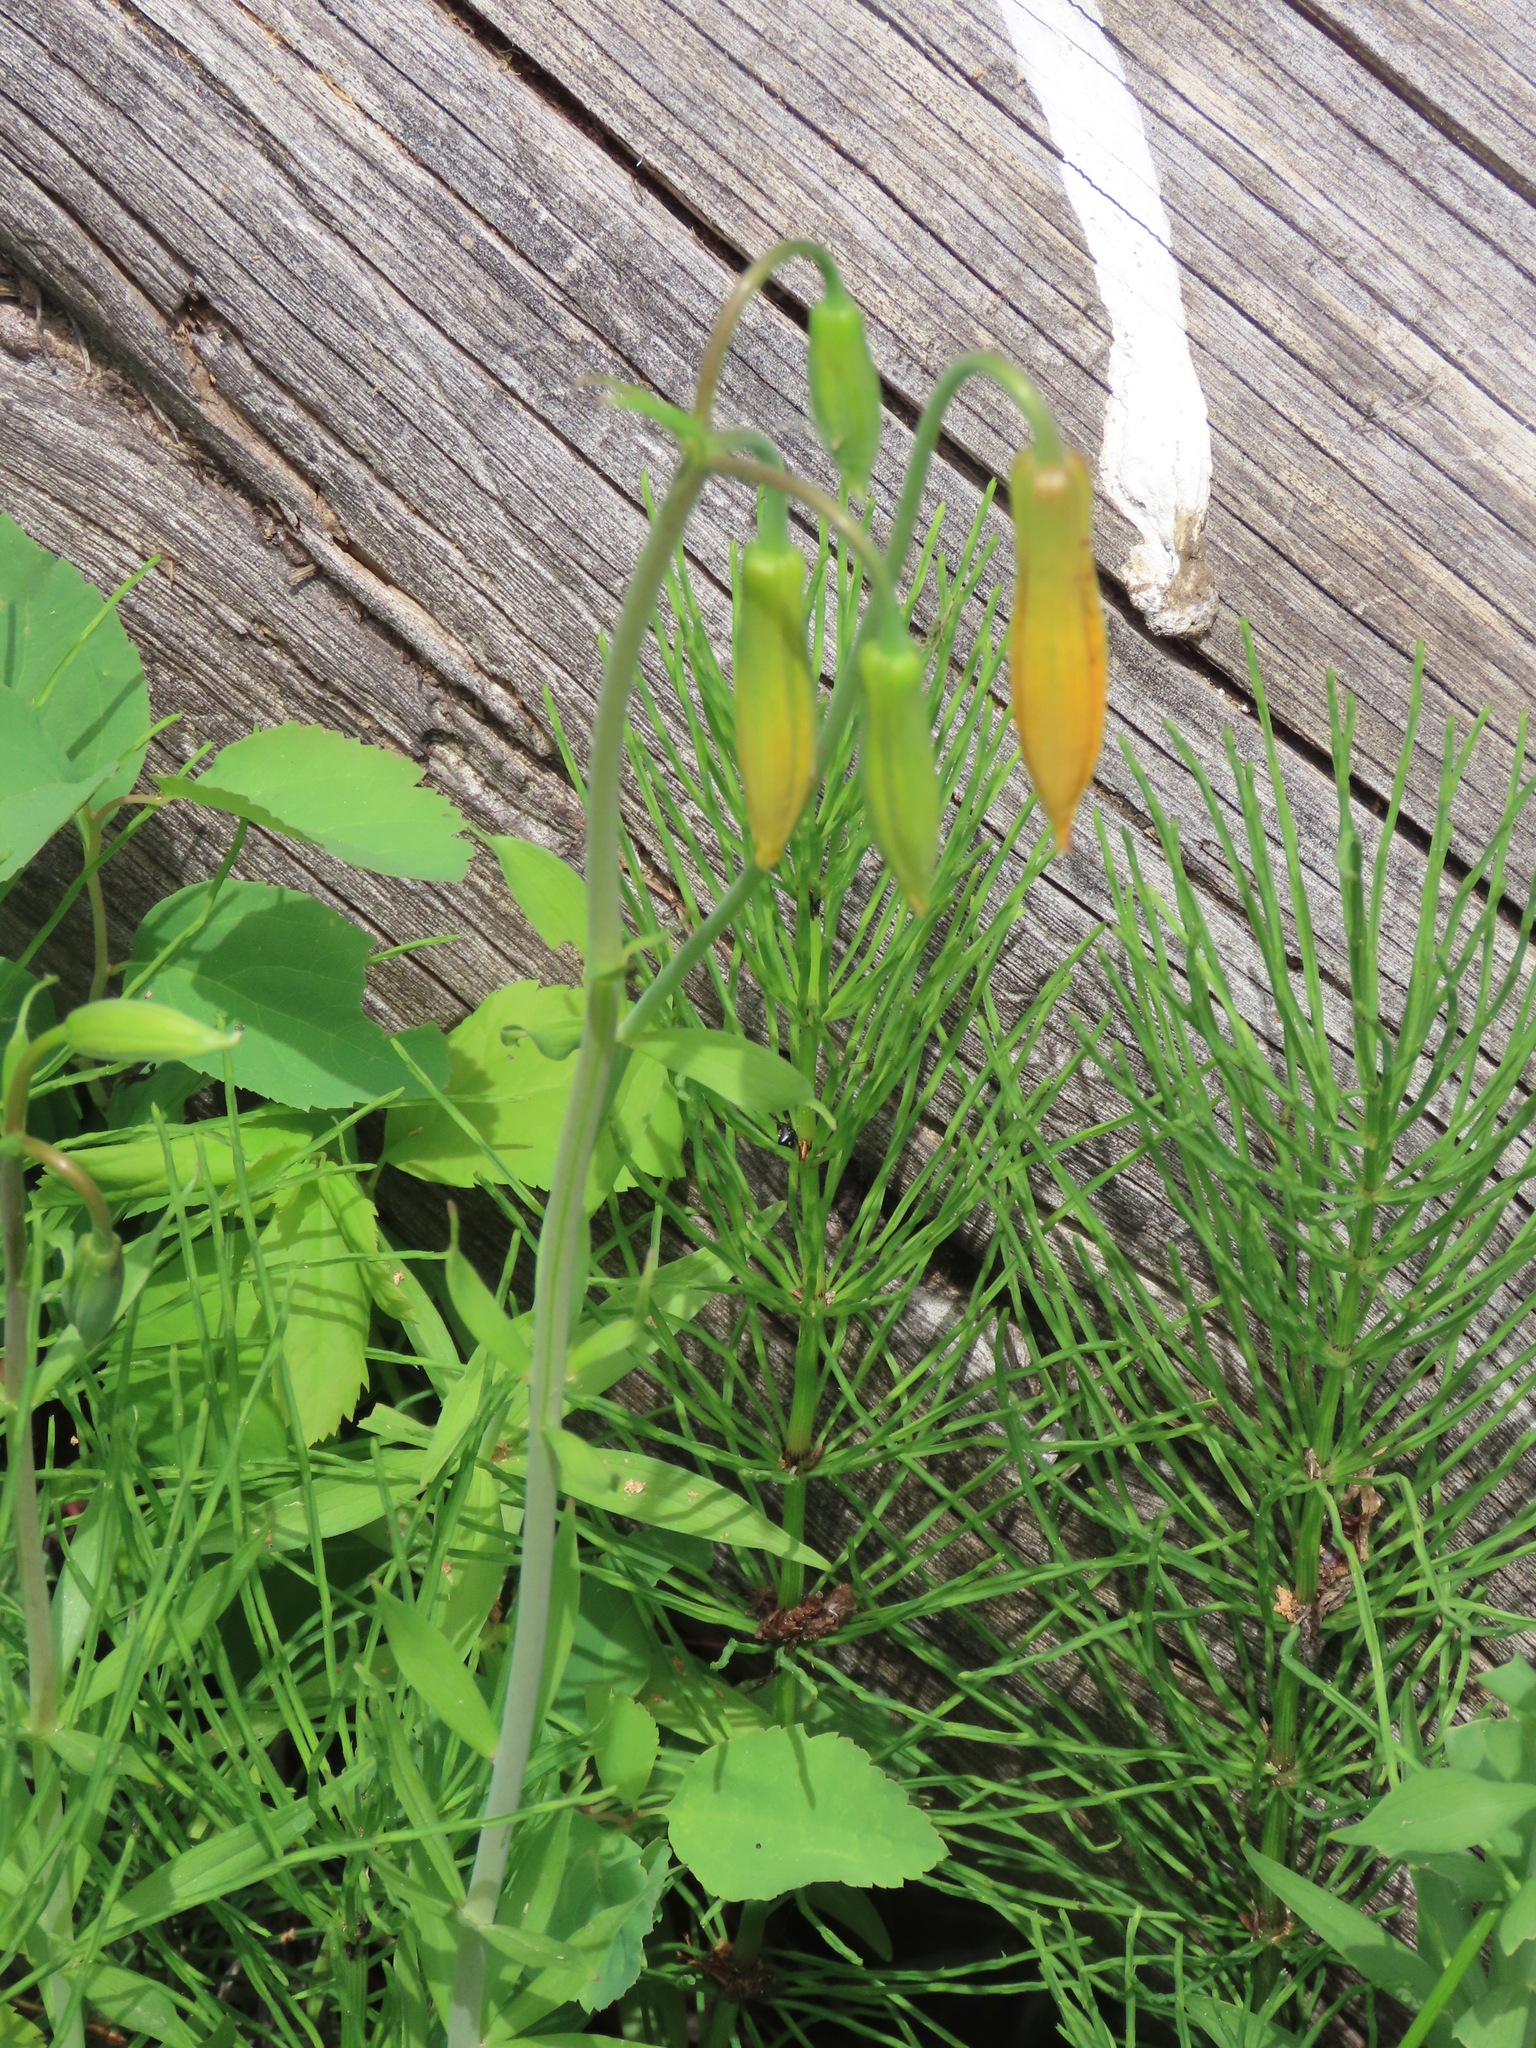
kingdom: Plantae
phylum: Tracheophyta
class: Liliopsida
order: Liliales
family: Liliaceae
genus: Lilium
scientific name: Lilium columbianum
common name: Columbia lily
